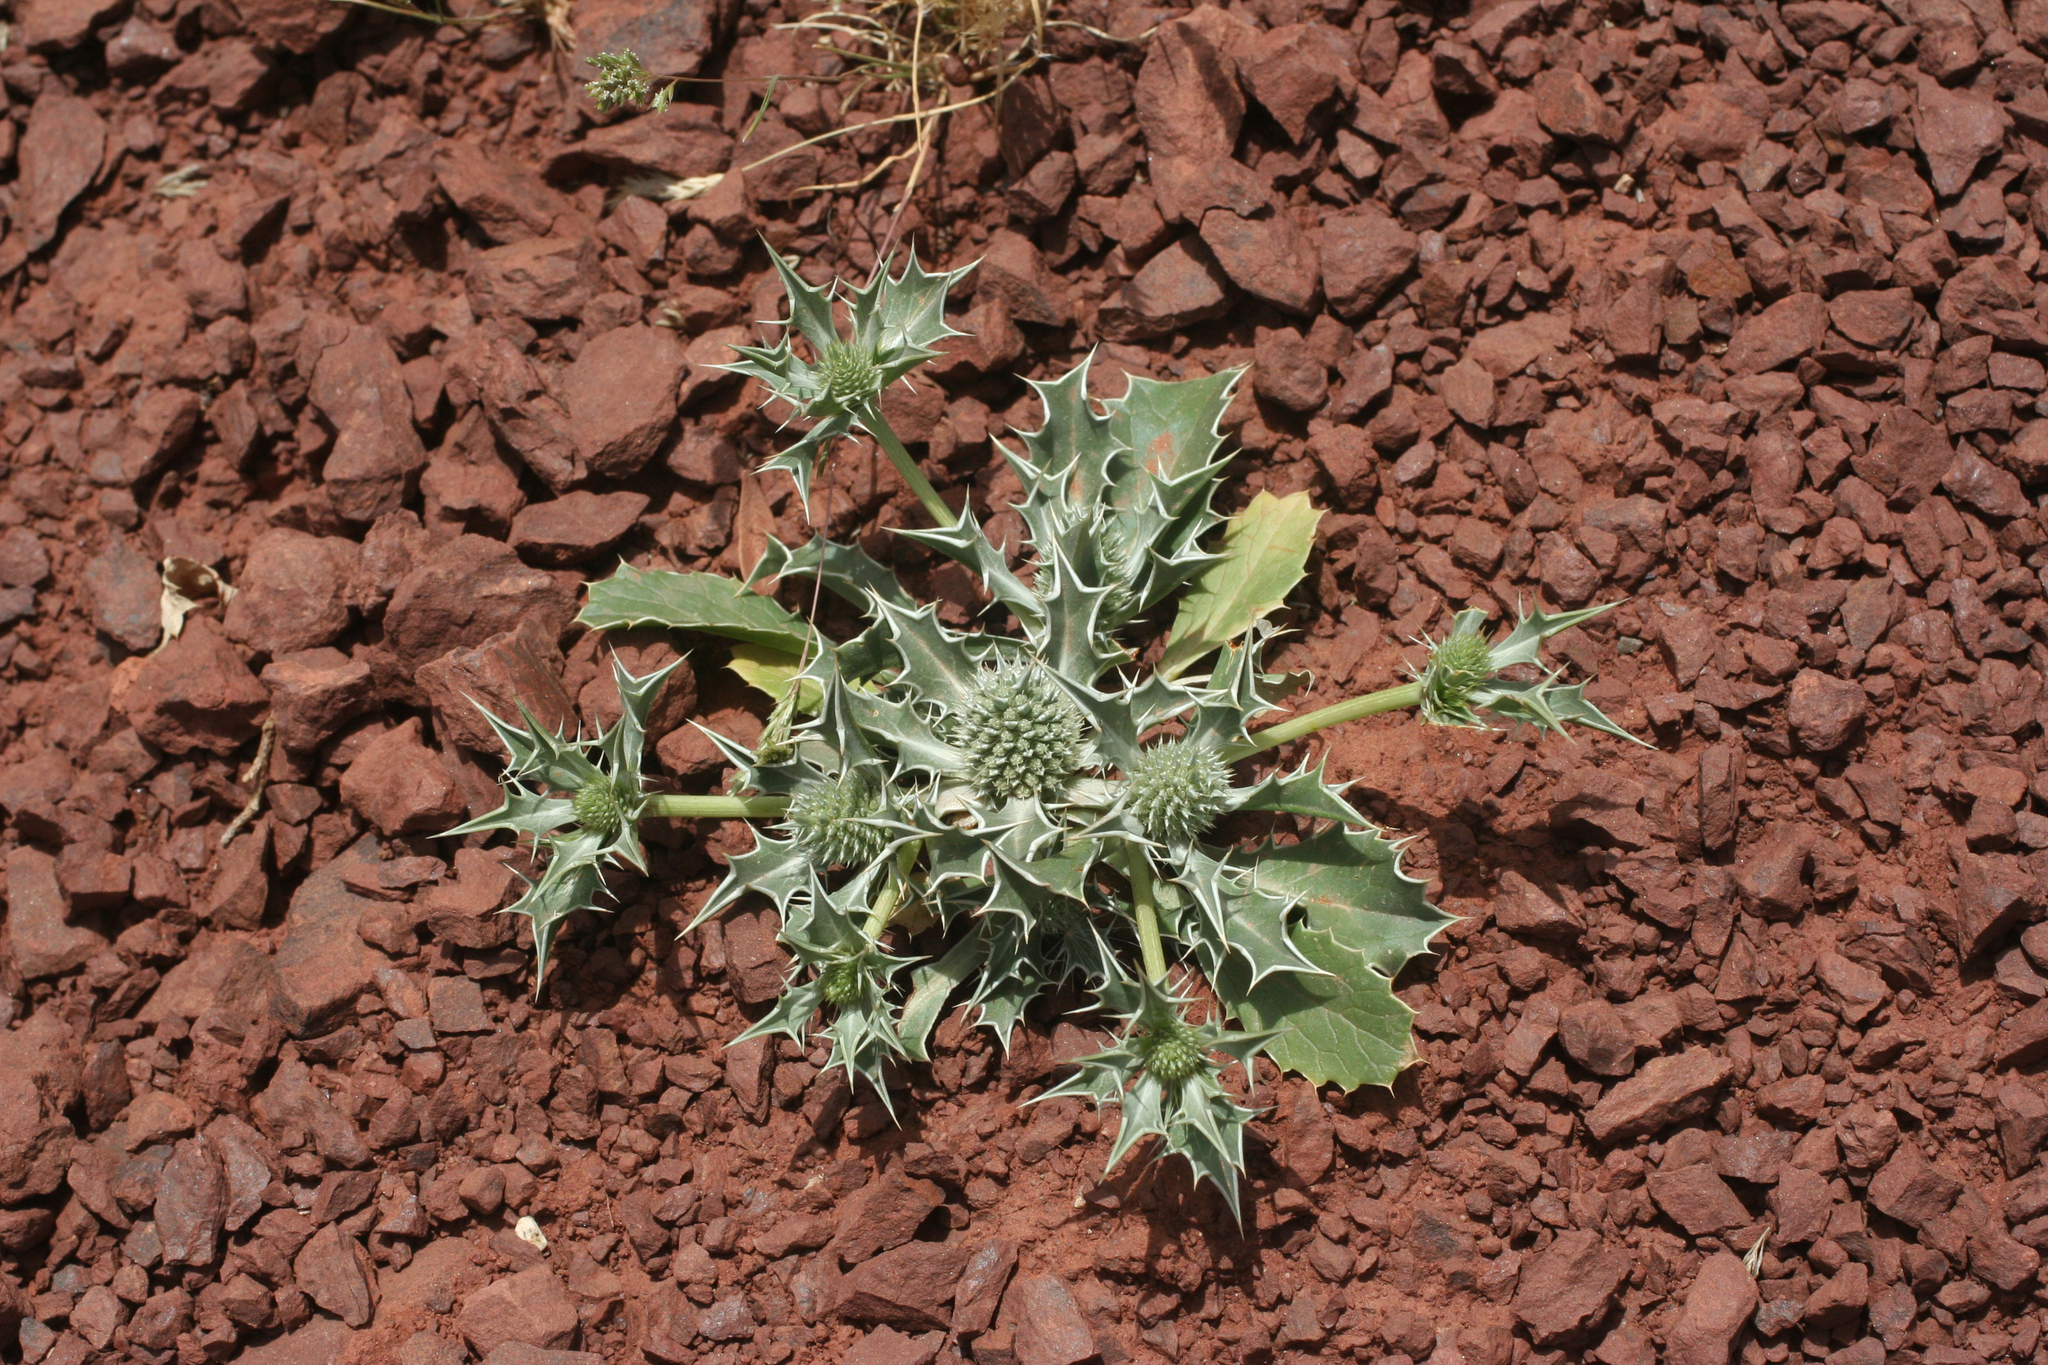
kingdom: Plantae
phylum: Tracheophyta
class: Magnoliopsida
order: Apiales
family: Apiaceae
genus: Eryngium
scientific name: Eryngium ilicifolium
